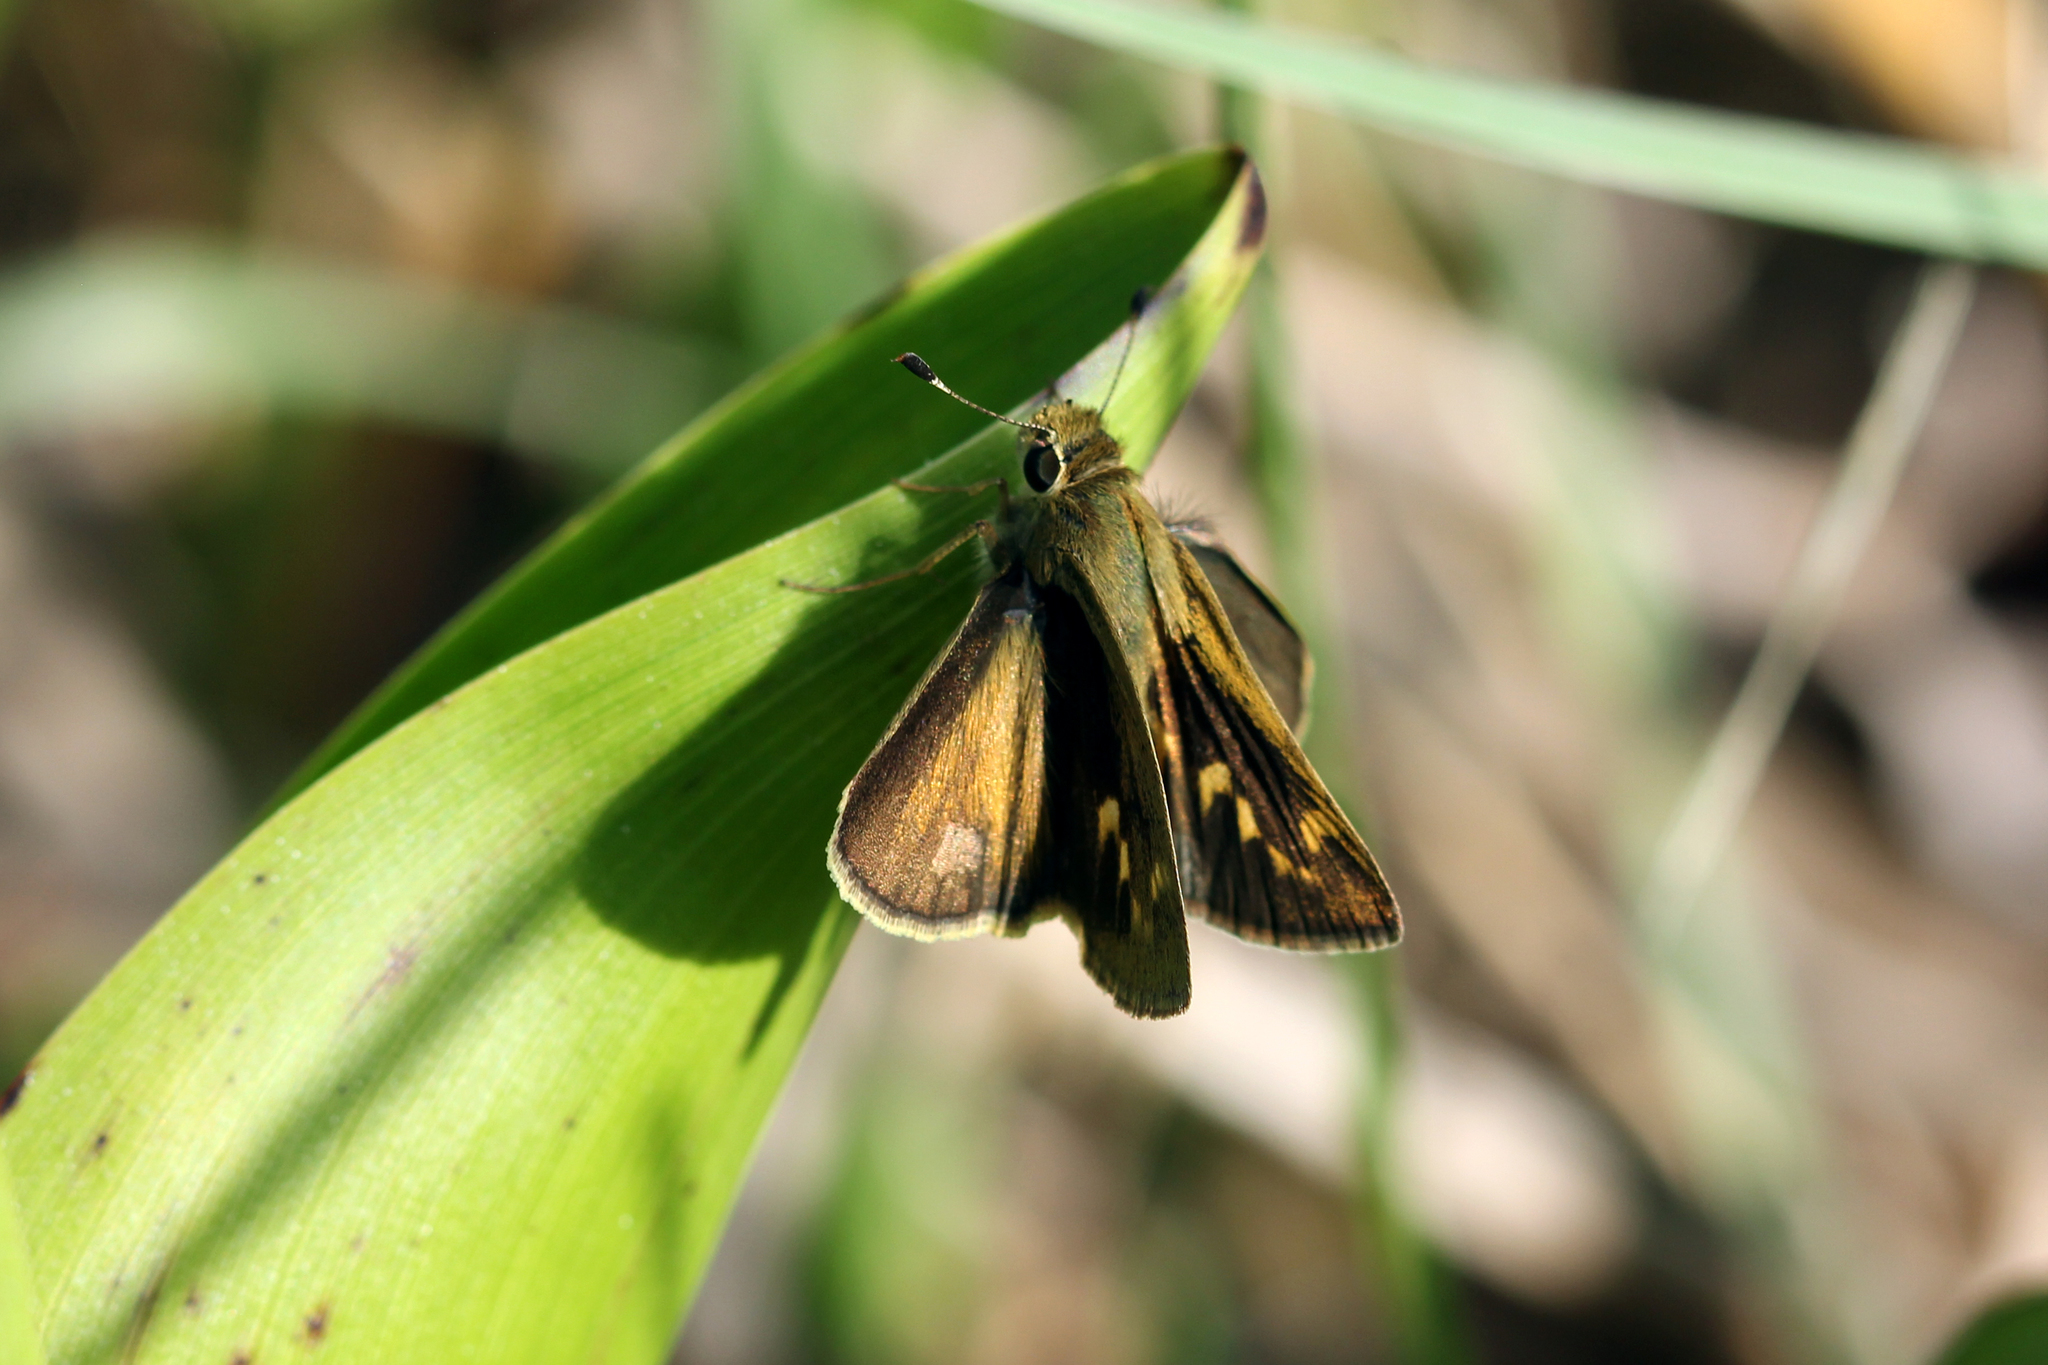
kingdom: Animalia
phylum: Arthropoda
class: Insecta
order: Lepidoptera
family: Hesperiidae
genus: Polites
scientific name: Polites vibex
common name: Whirlabout
